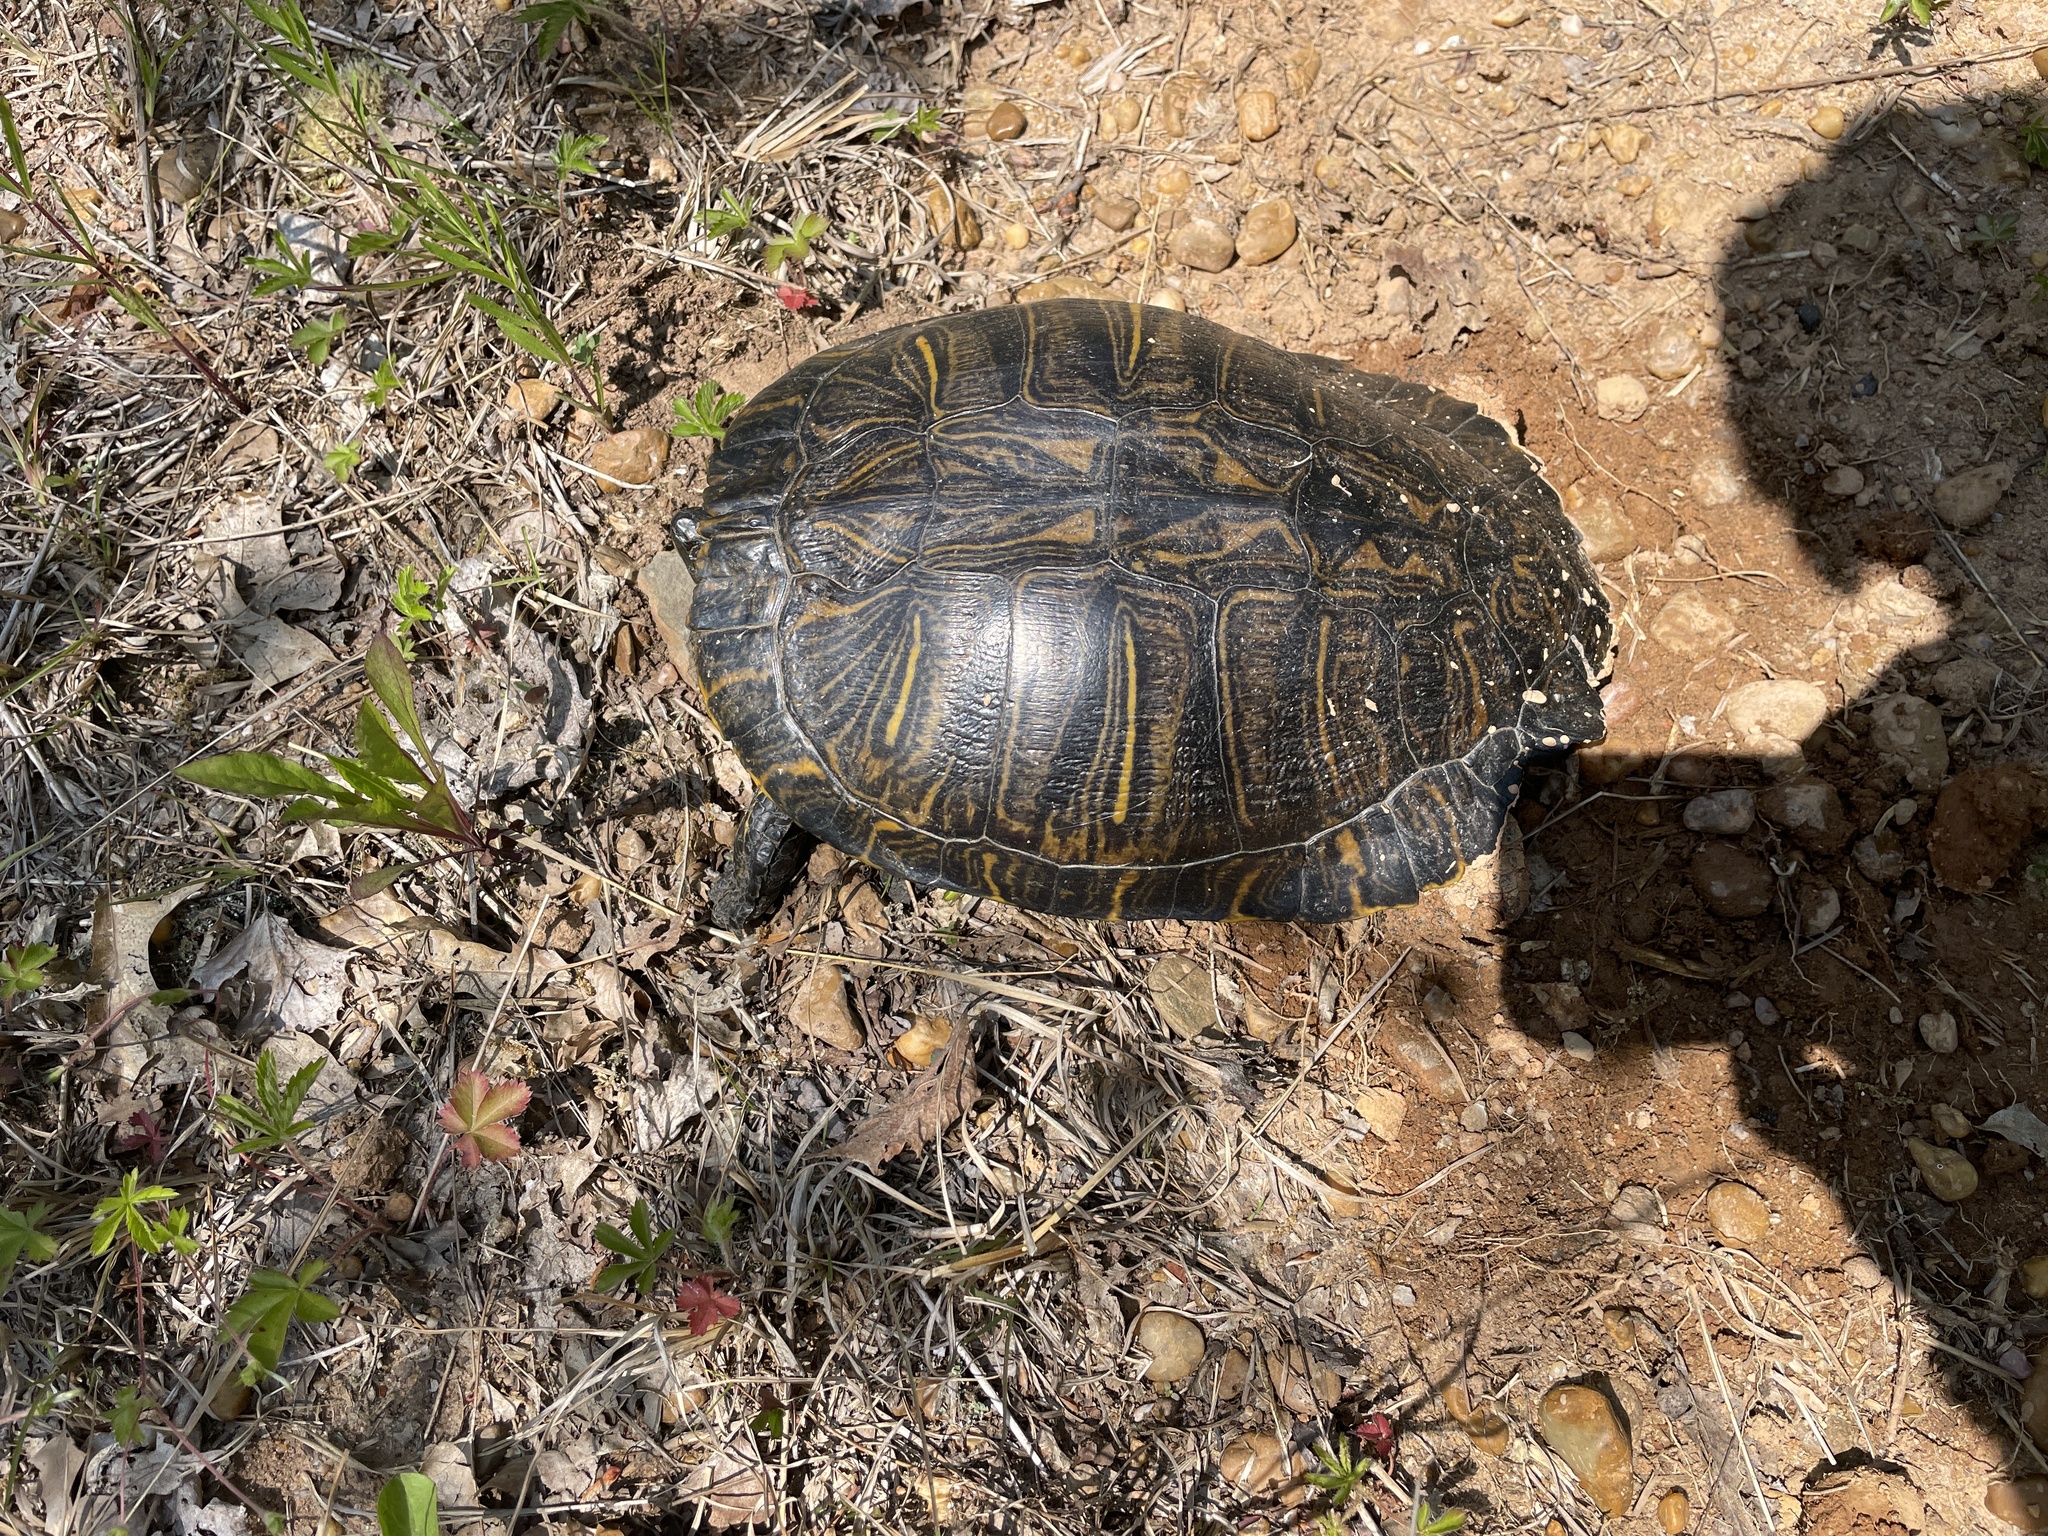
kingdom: Animalia
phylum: Chordata
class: Testudines
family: Emydidae
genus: Trachemys
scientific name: Trachemys scripta
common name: Slider
